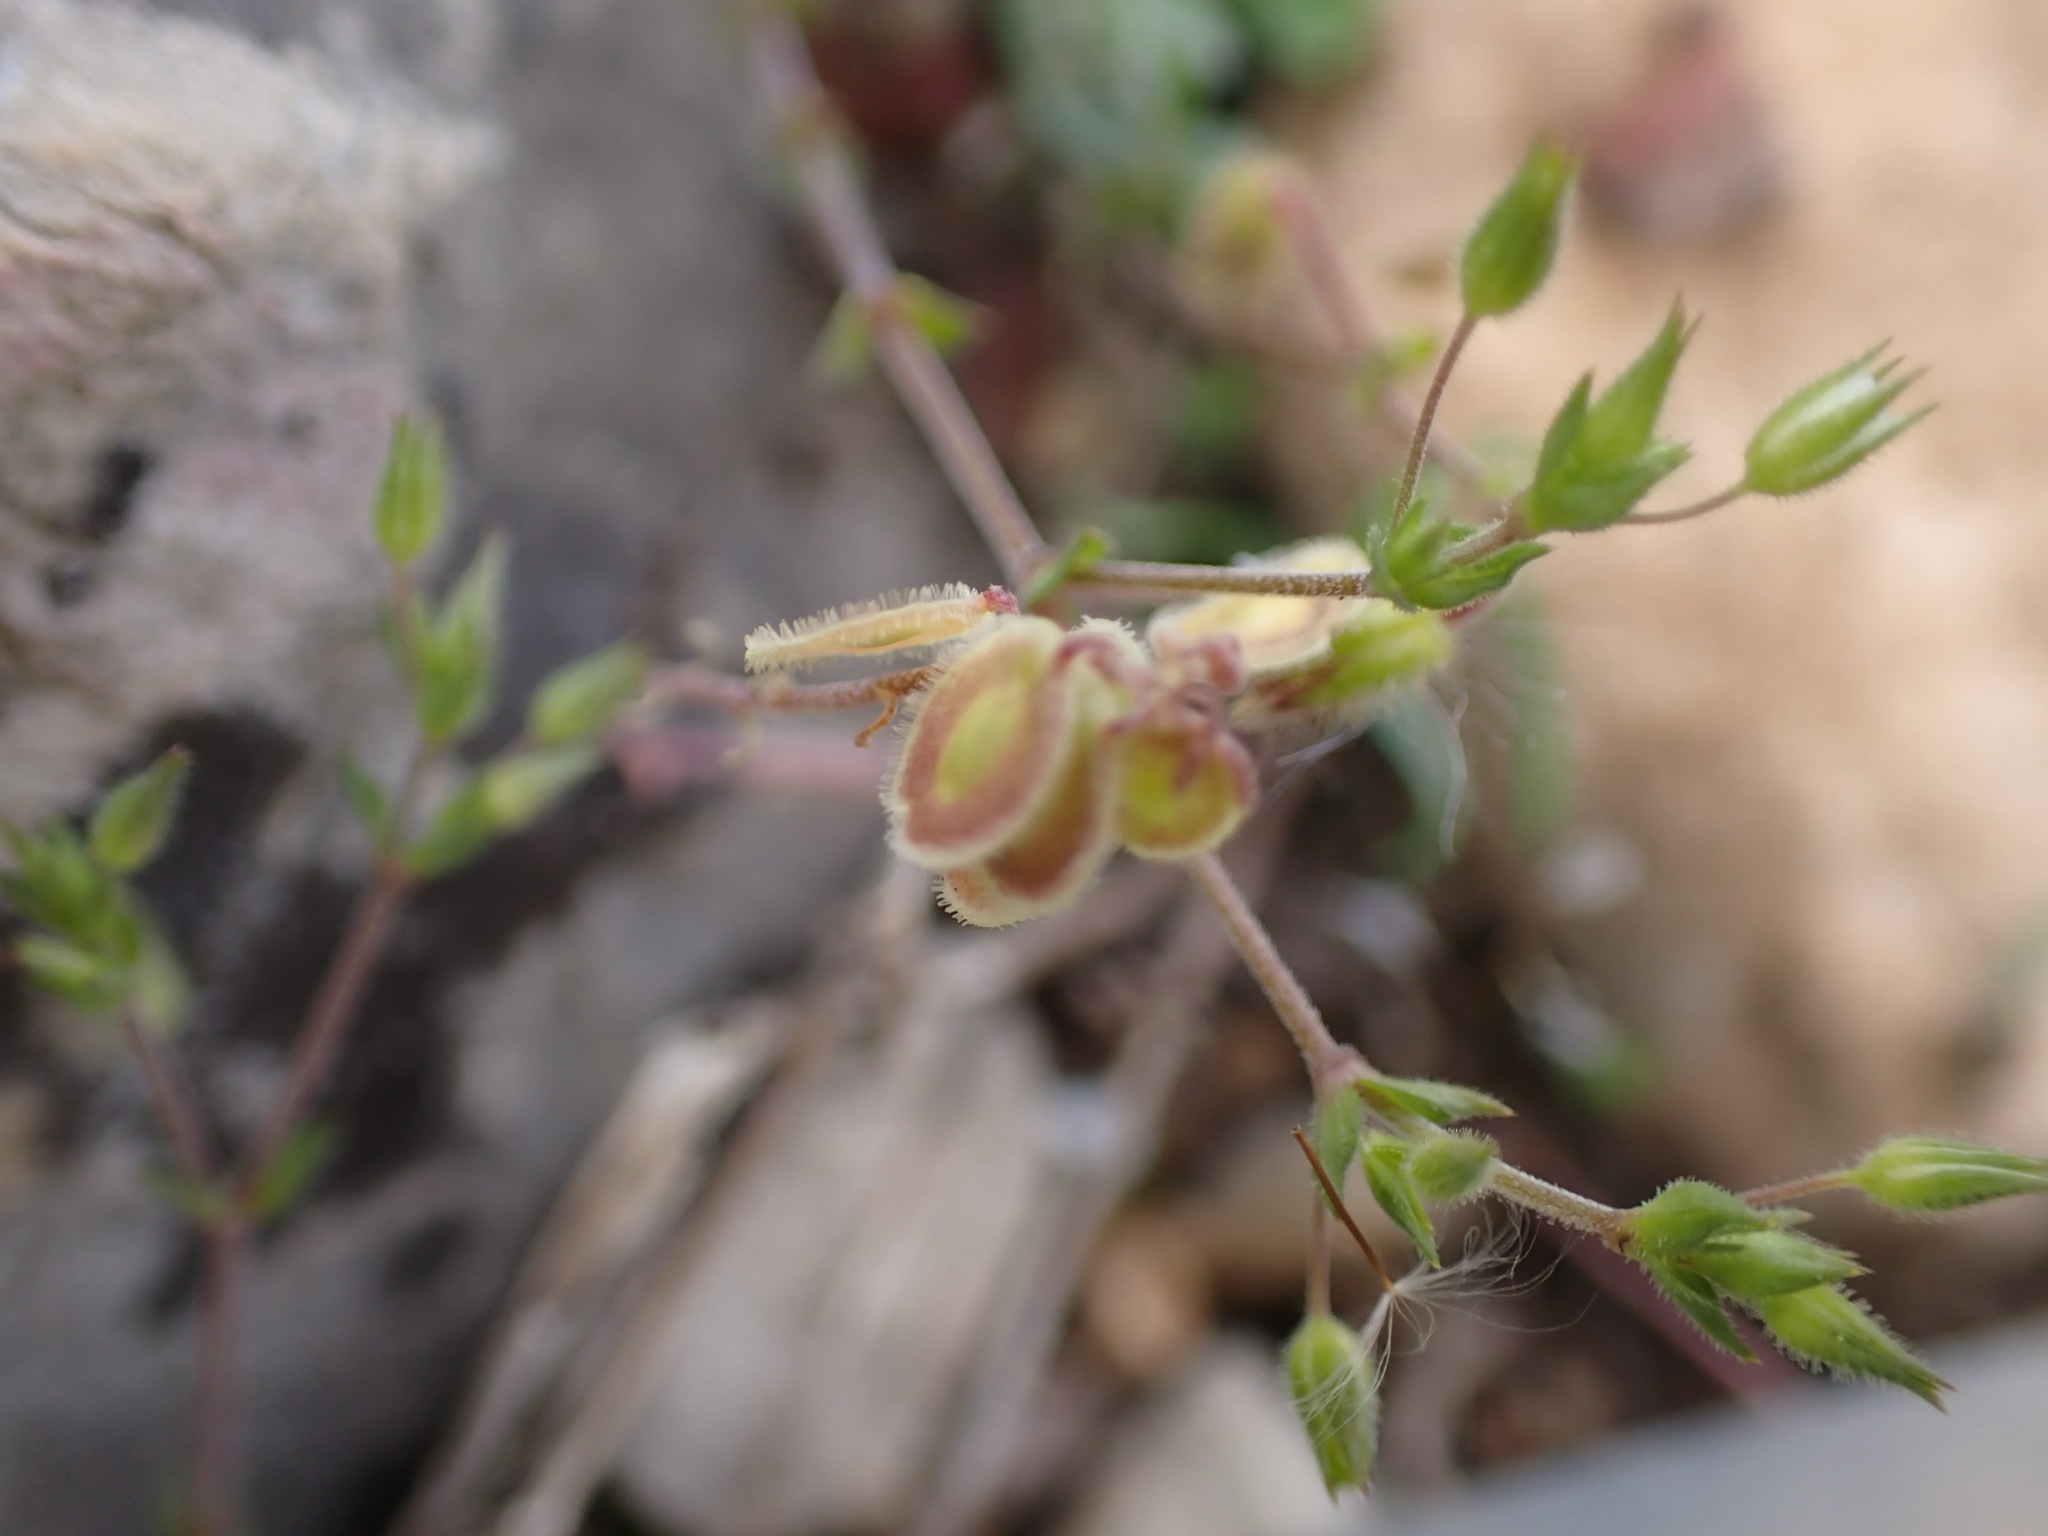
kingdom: Plantae
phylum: Tracheophyta
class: Magnoliopsida
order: Brassicales
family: Brassicaceae
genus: Clypeola
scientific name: Clypeola jonthlaspi
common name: Disk cress
